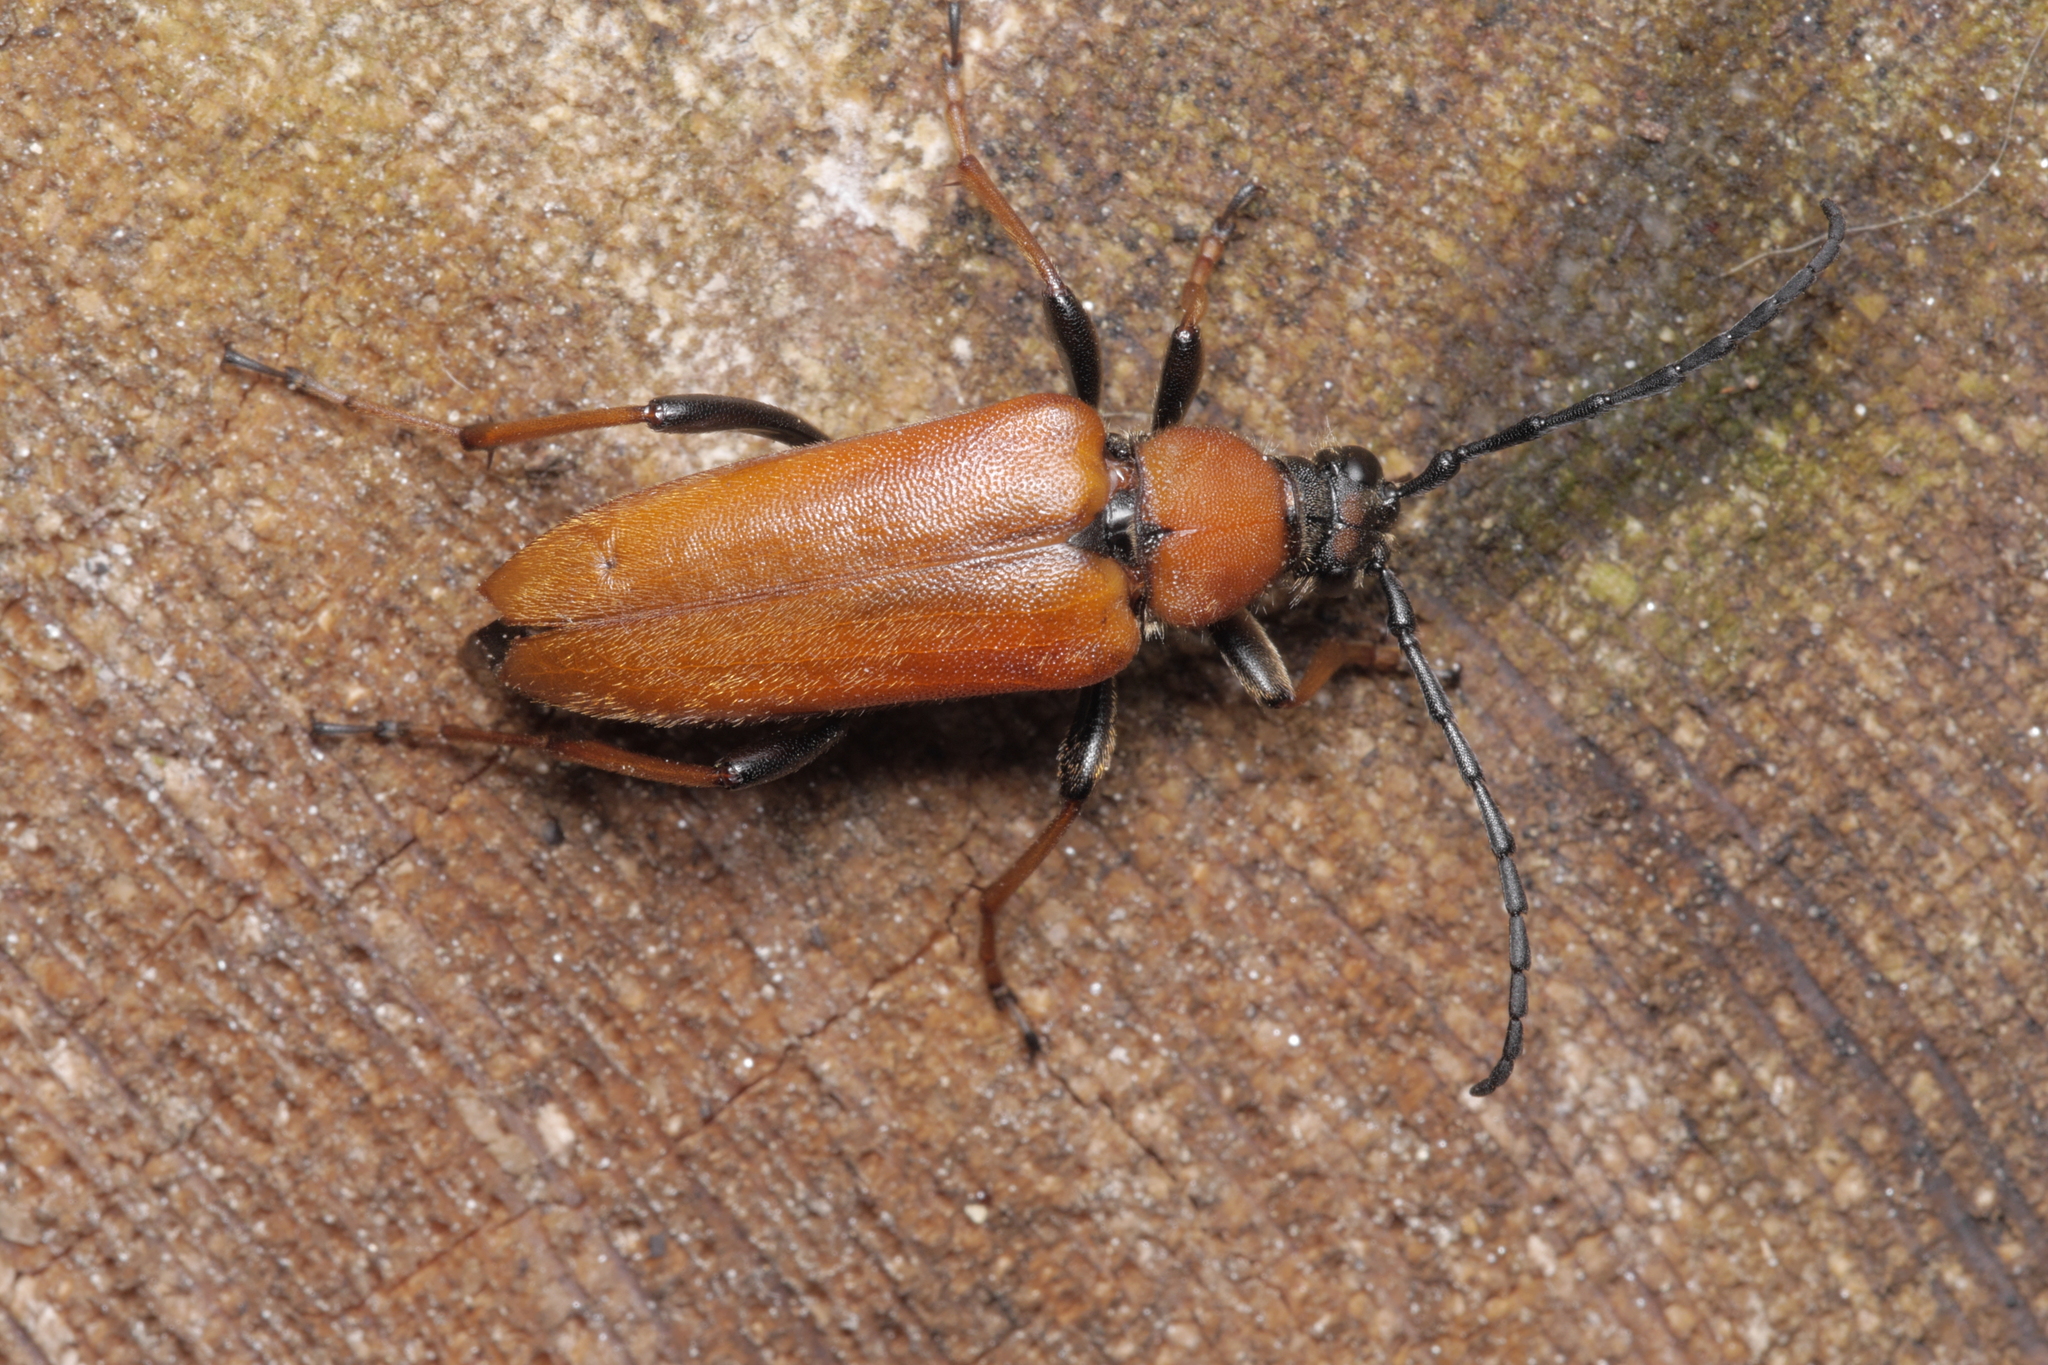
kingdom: Animalia
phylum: Arthropoda
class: Insecta
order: Coleoptera
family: Cerambycidae
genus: Stictoleptura
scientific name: Stictoleptura rubra
